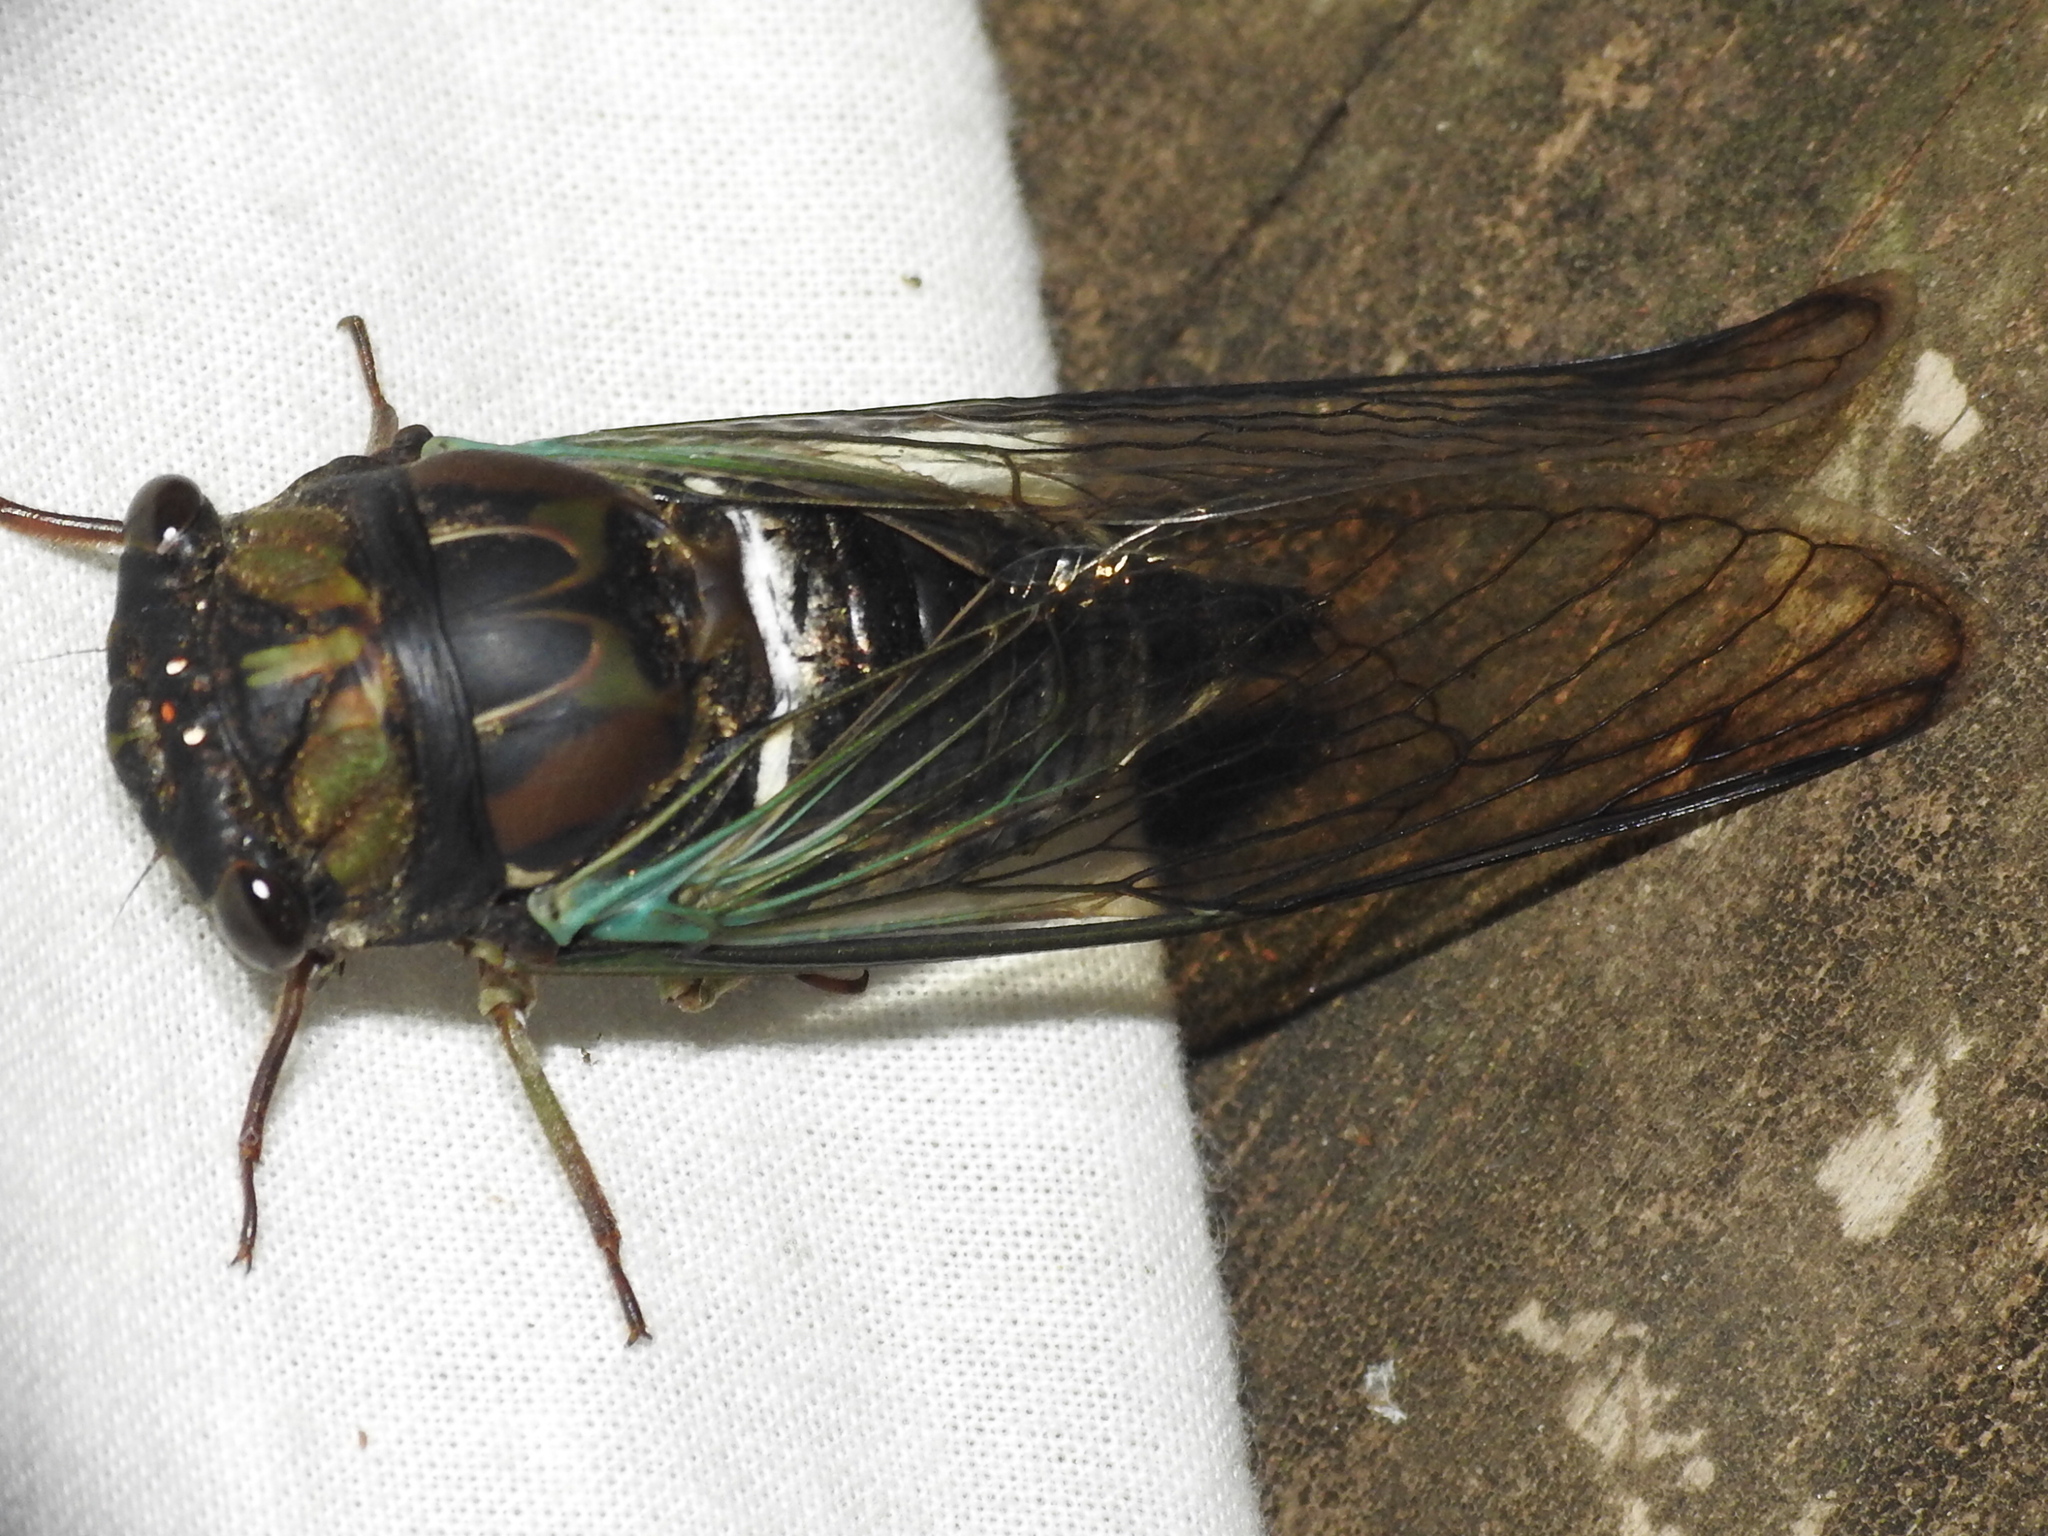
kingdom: Animalia
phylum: Arthropoda
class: Insecta
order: Hemiptera
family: Cicadidae
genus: Neotibicen
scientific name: Neotibicen lyricen
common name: Lyric cicada
